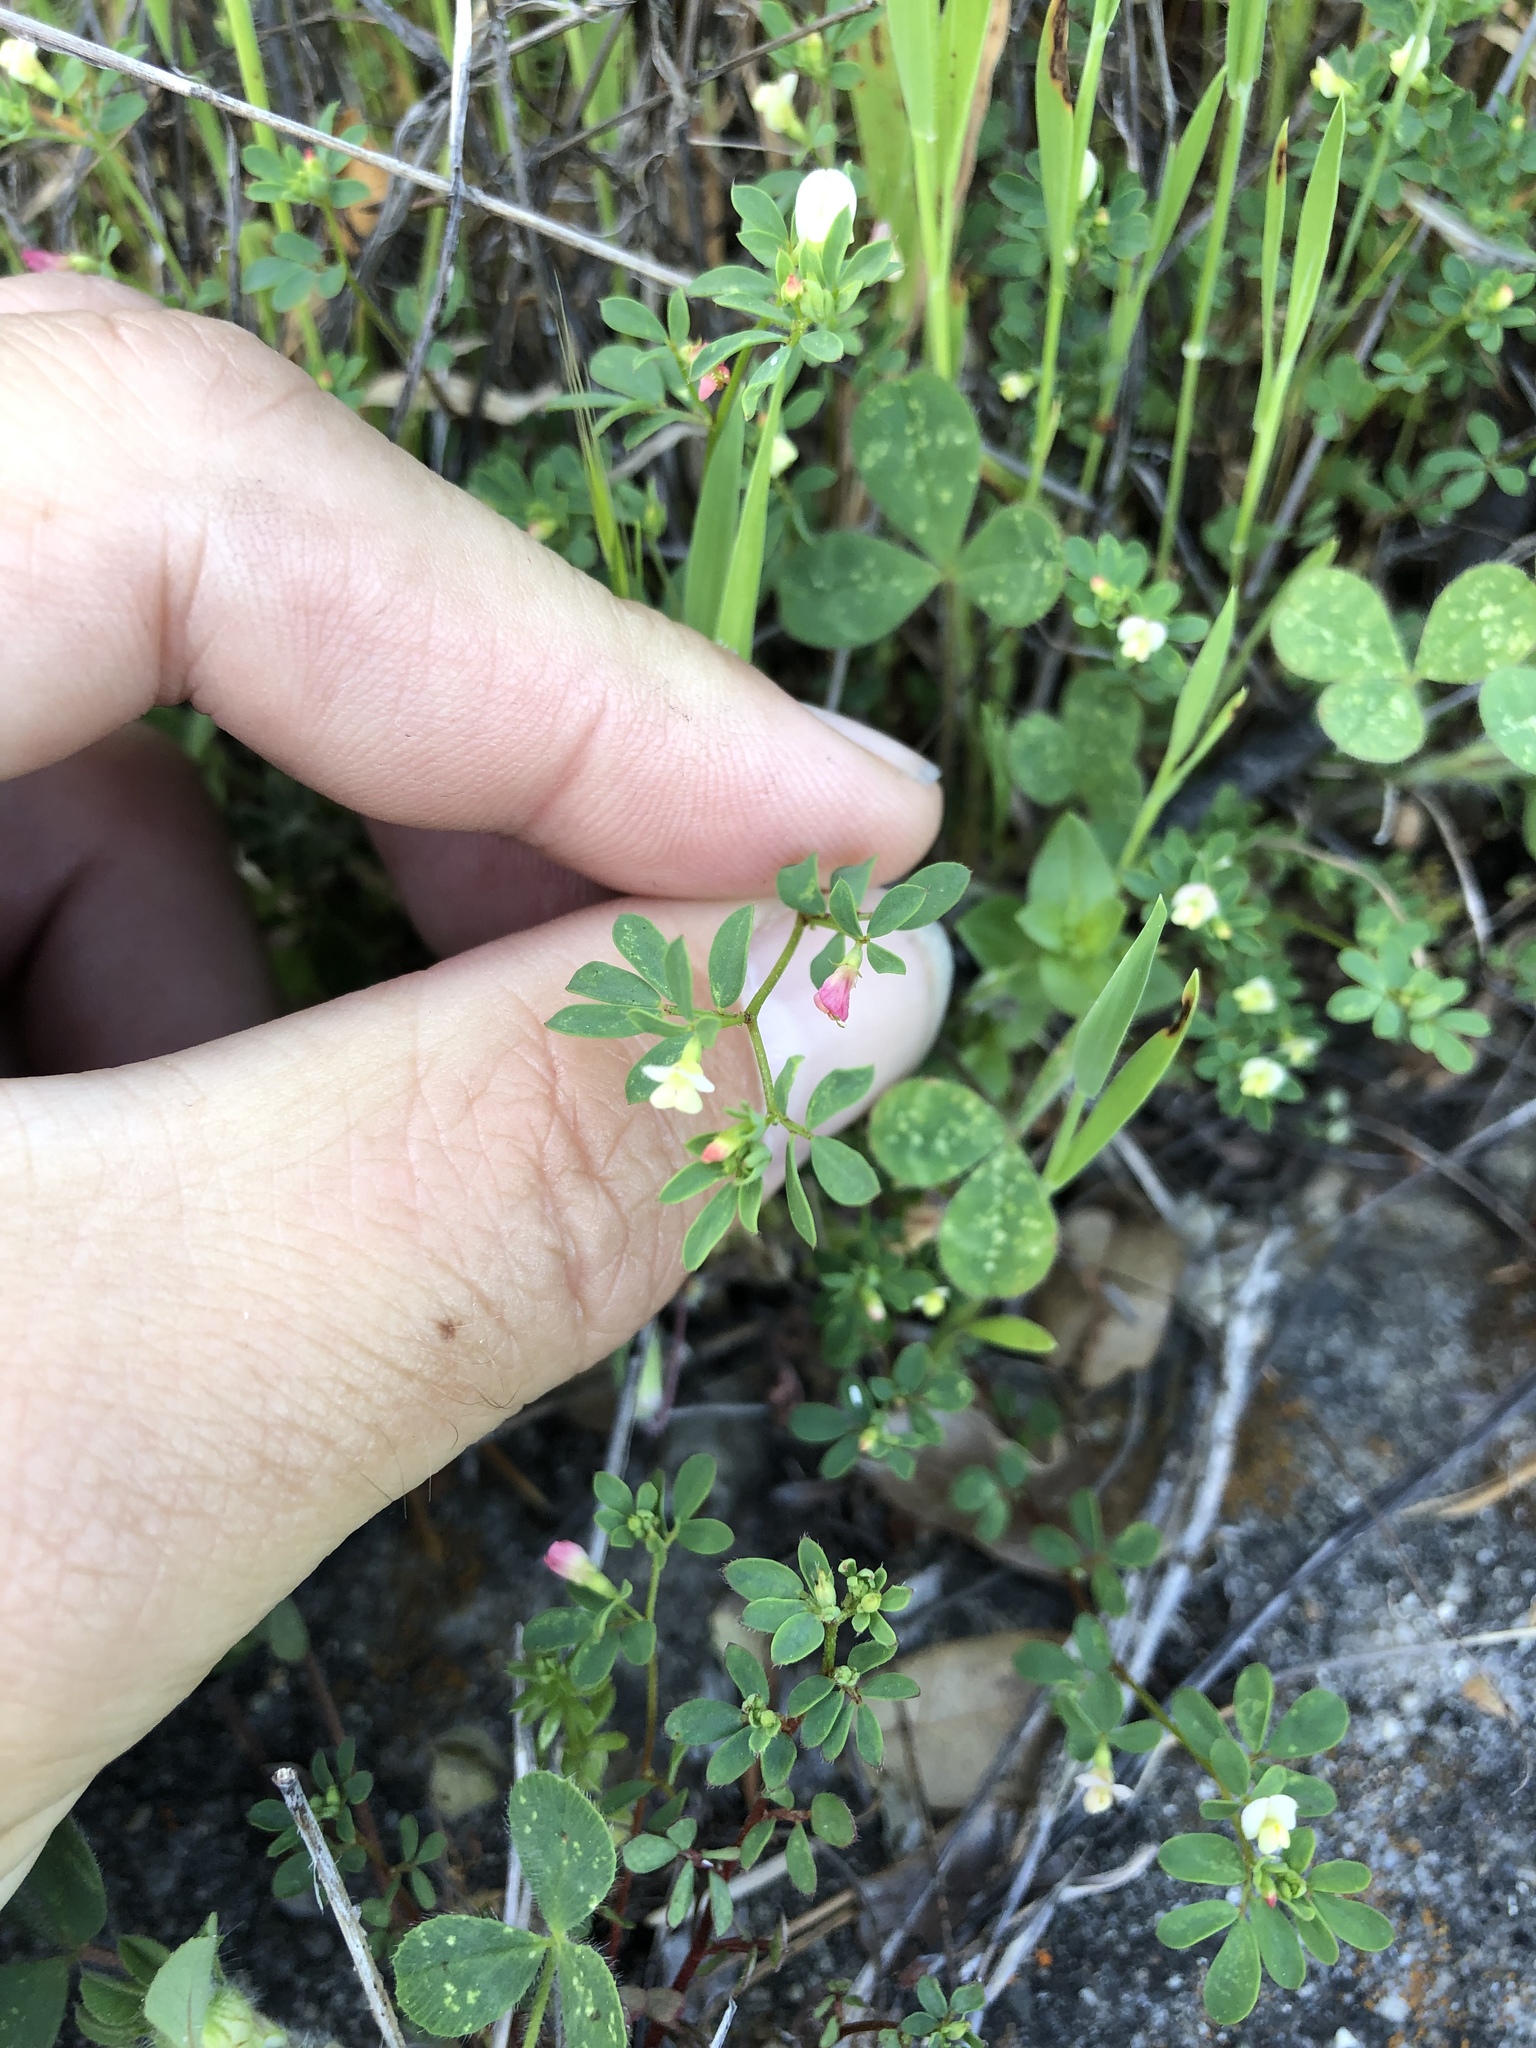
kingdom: Plantae
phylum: Tracheophyta
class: Magnoliopsida
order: Fabales
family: Fabaceae
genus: Acmispon
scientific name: Acmispon parviflorus
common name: Desert deer-vetch
